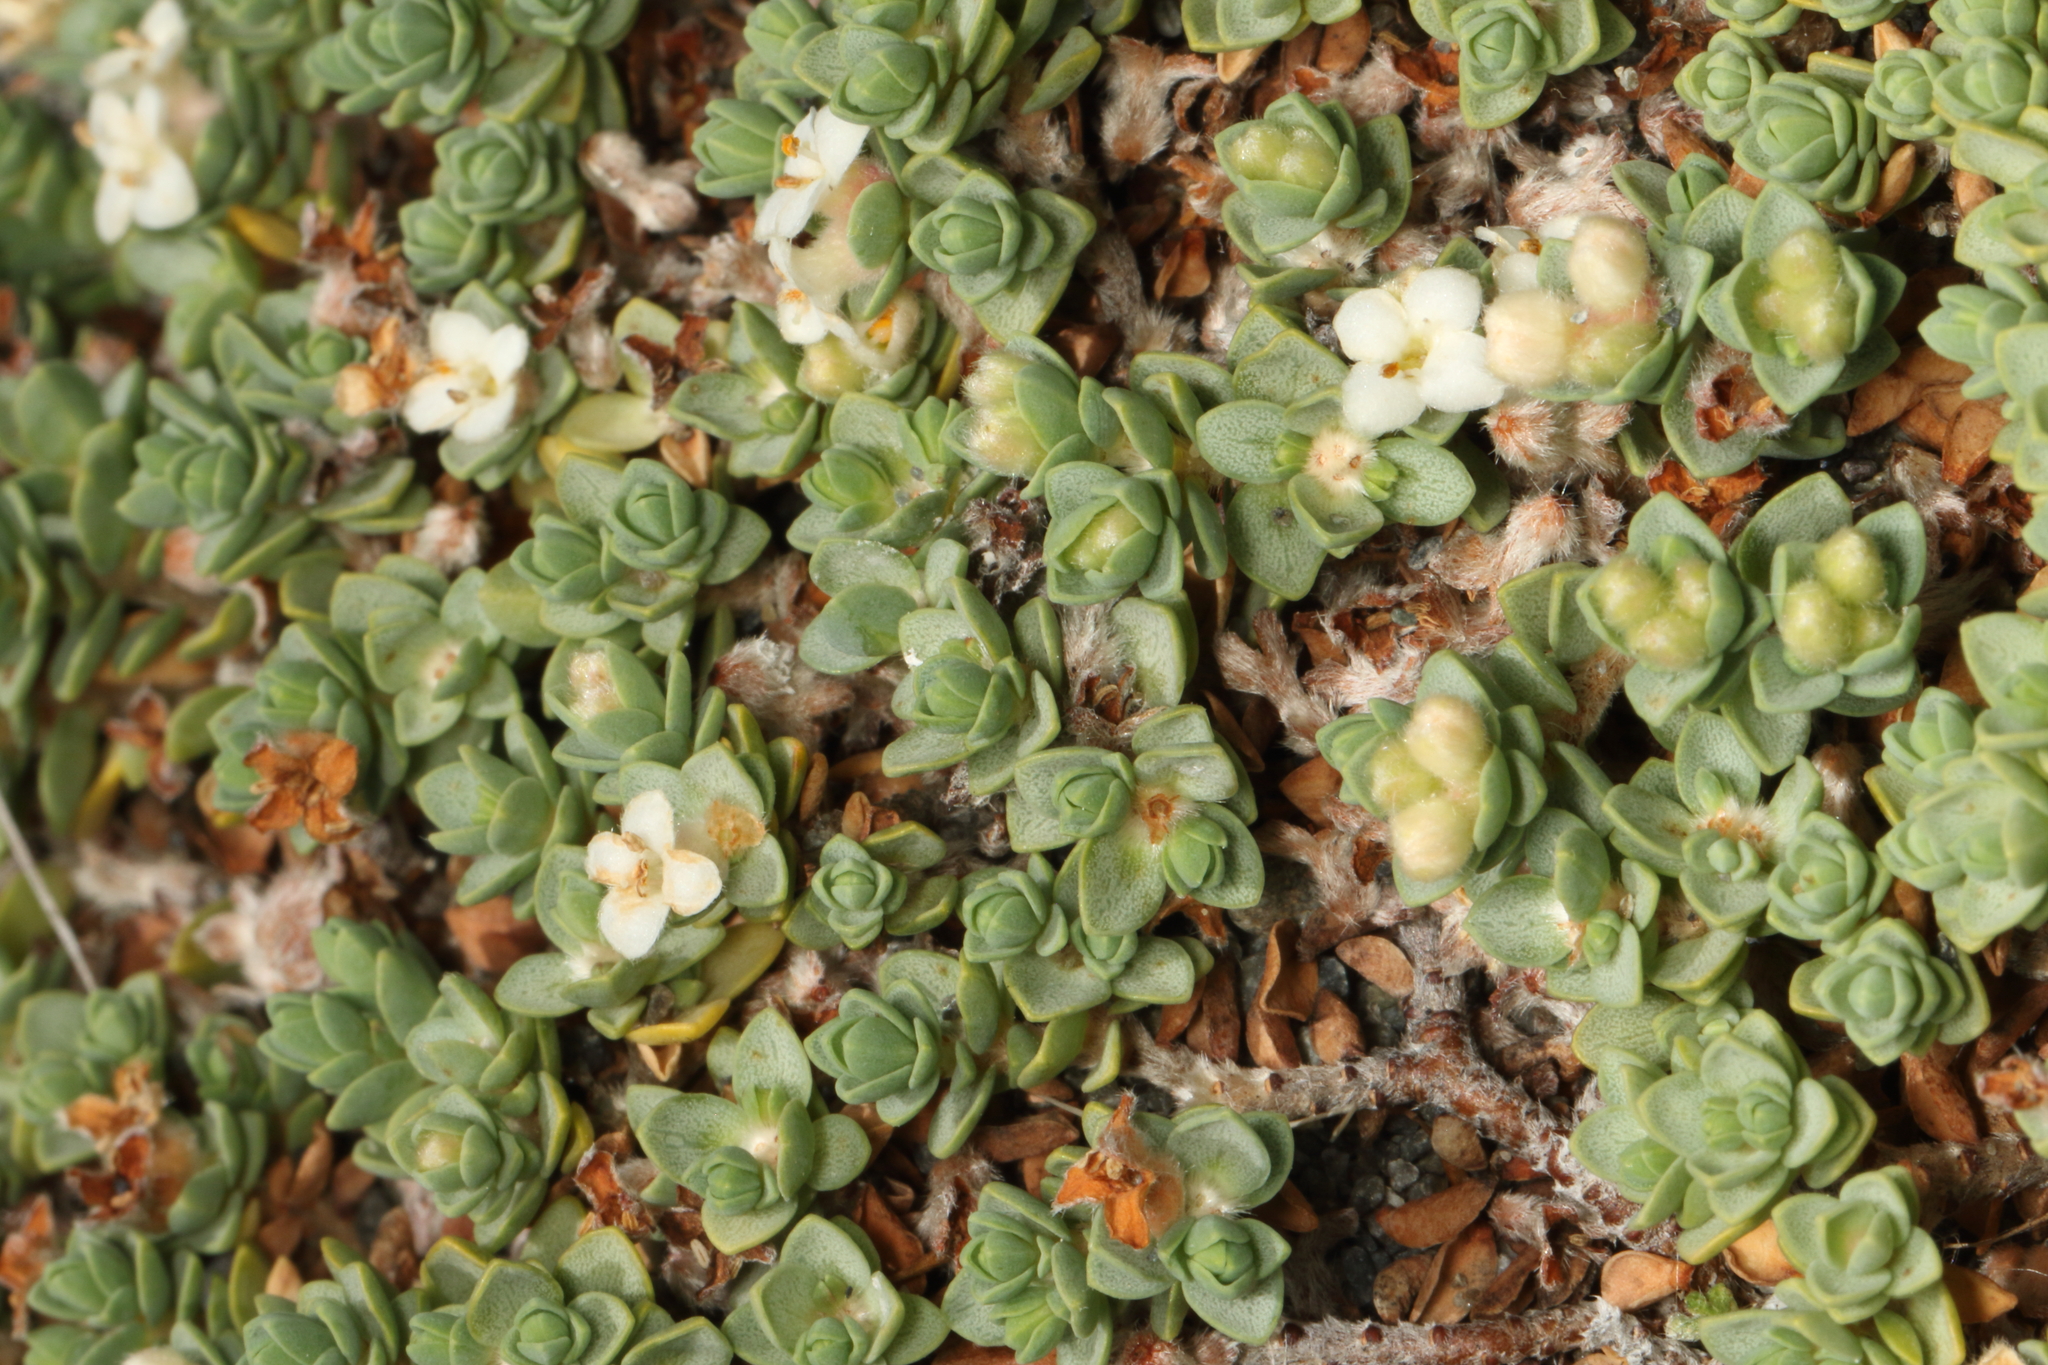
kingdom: Plantae
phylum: Tracheophyta
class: Magnoliopsida
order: Malvales
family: Thymelaeaceae
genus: Pimelea
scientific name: Pimelea carnosa
